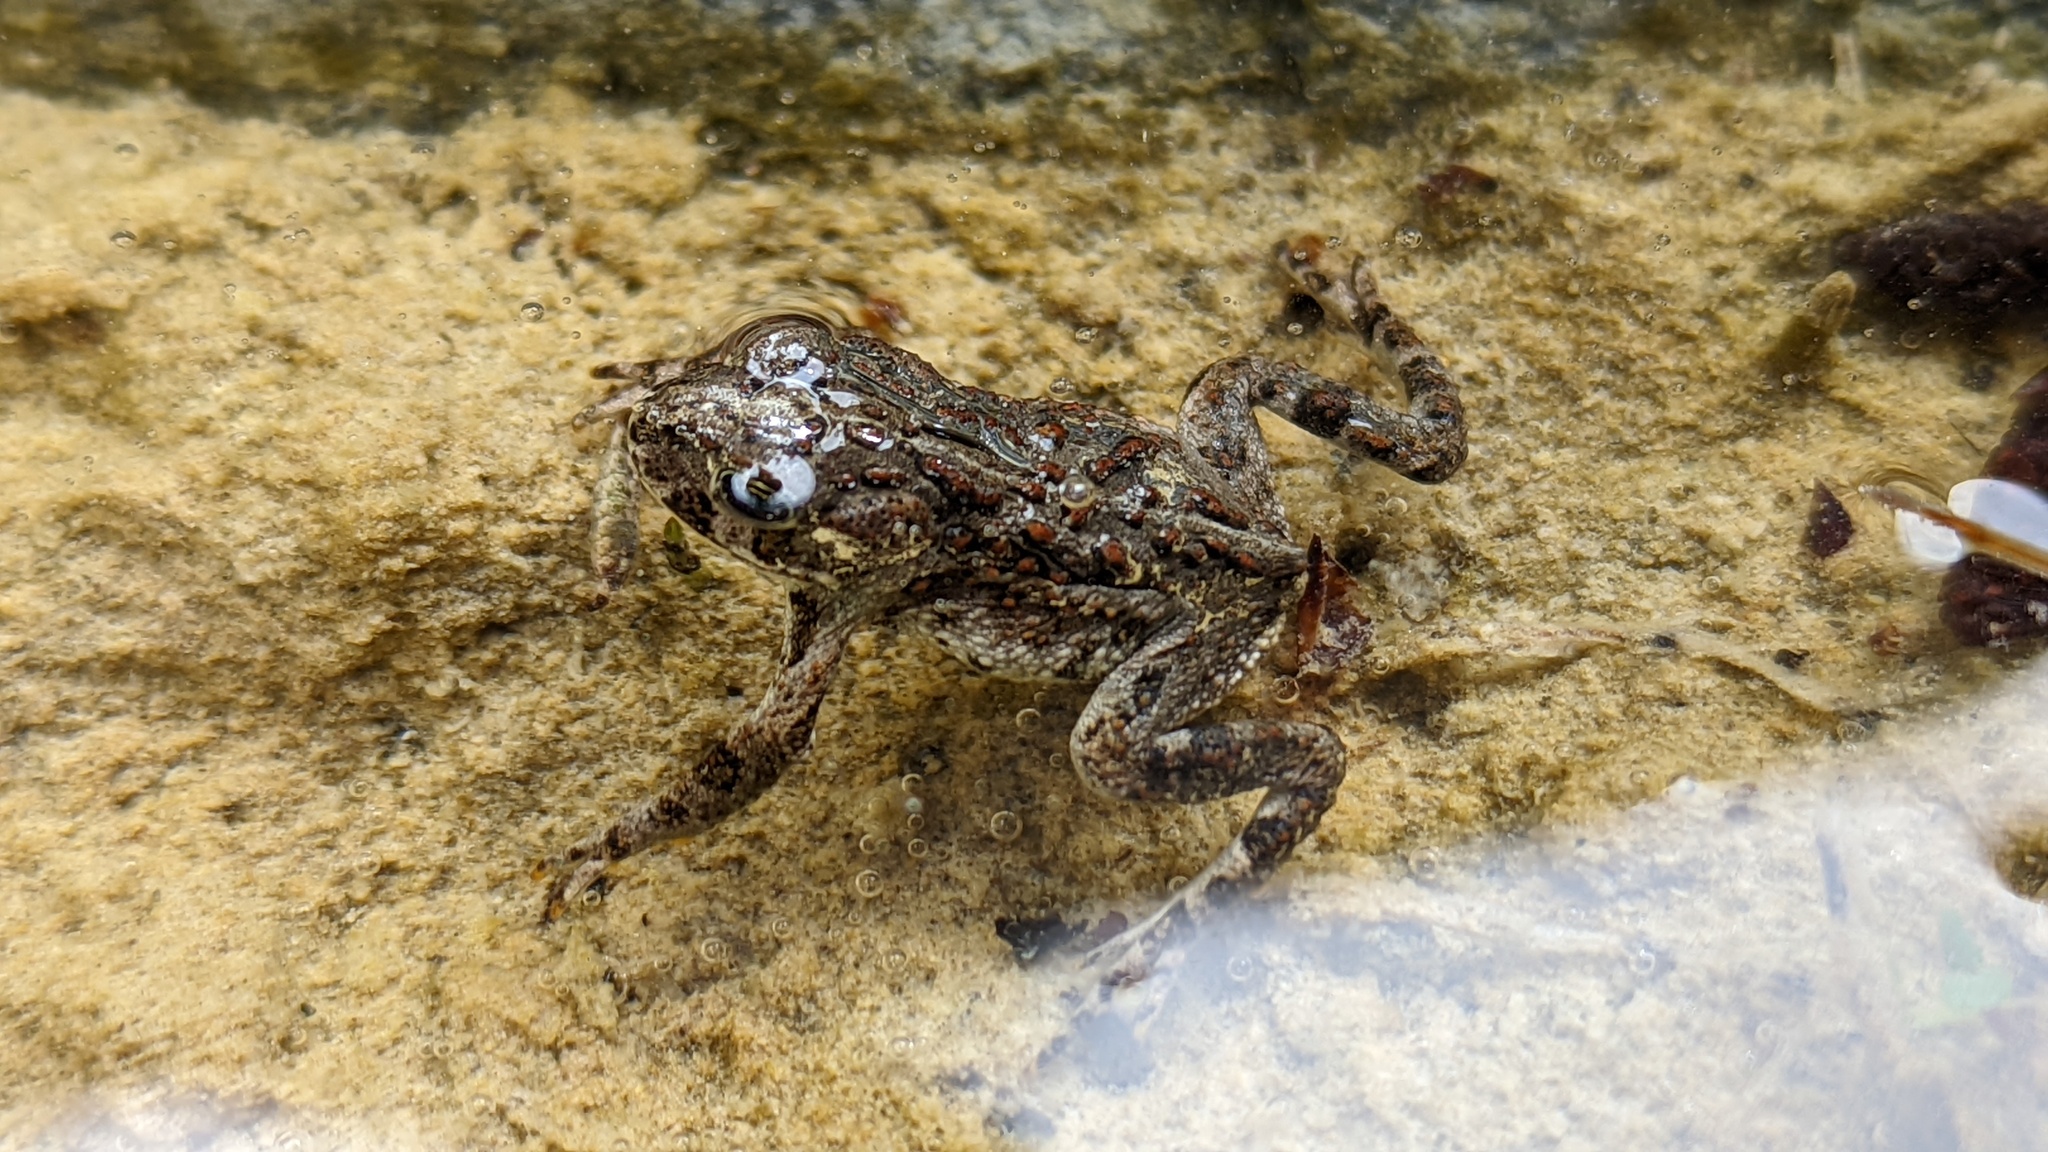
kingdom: Animalia
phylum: Chordata
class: Amphibia
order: Anura
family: Bufonidae
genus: Anaxyrus
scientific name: Anaxyrus boreas
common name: Western toad
